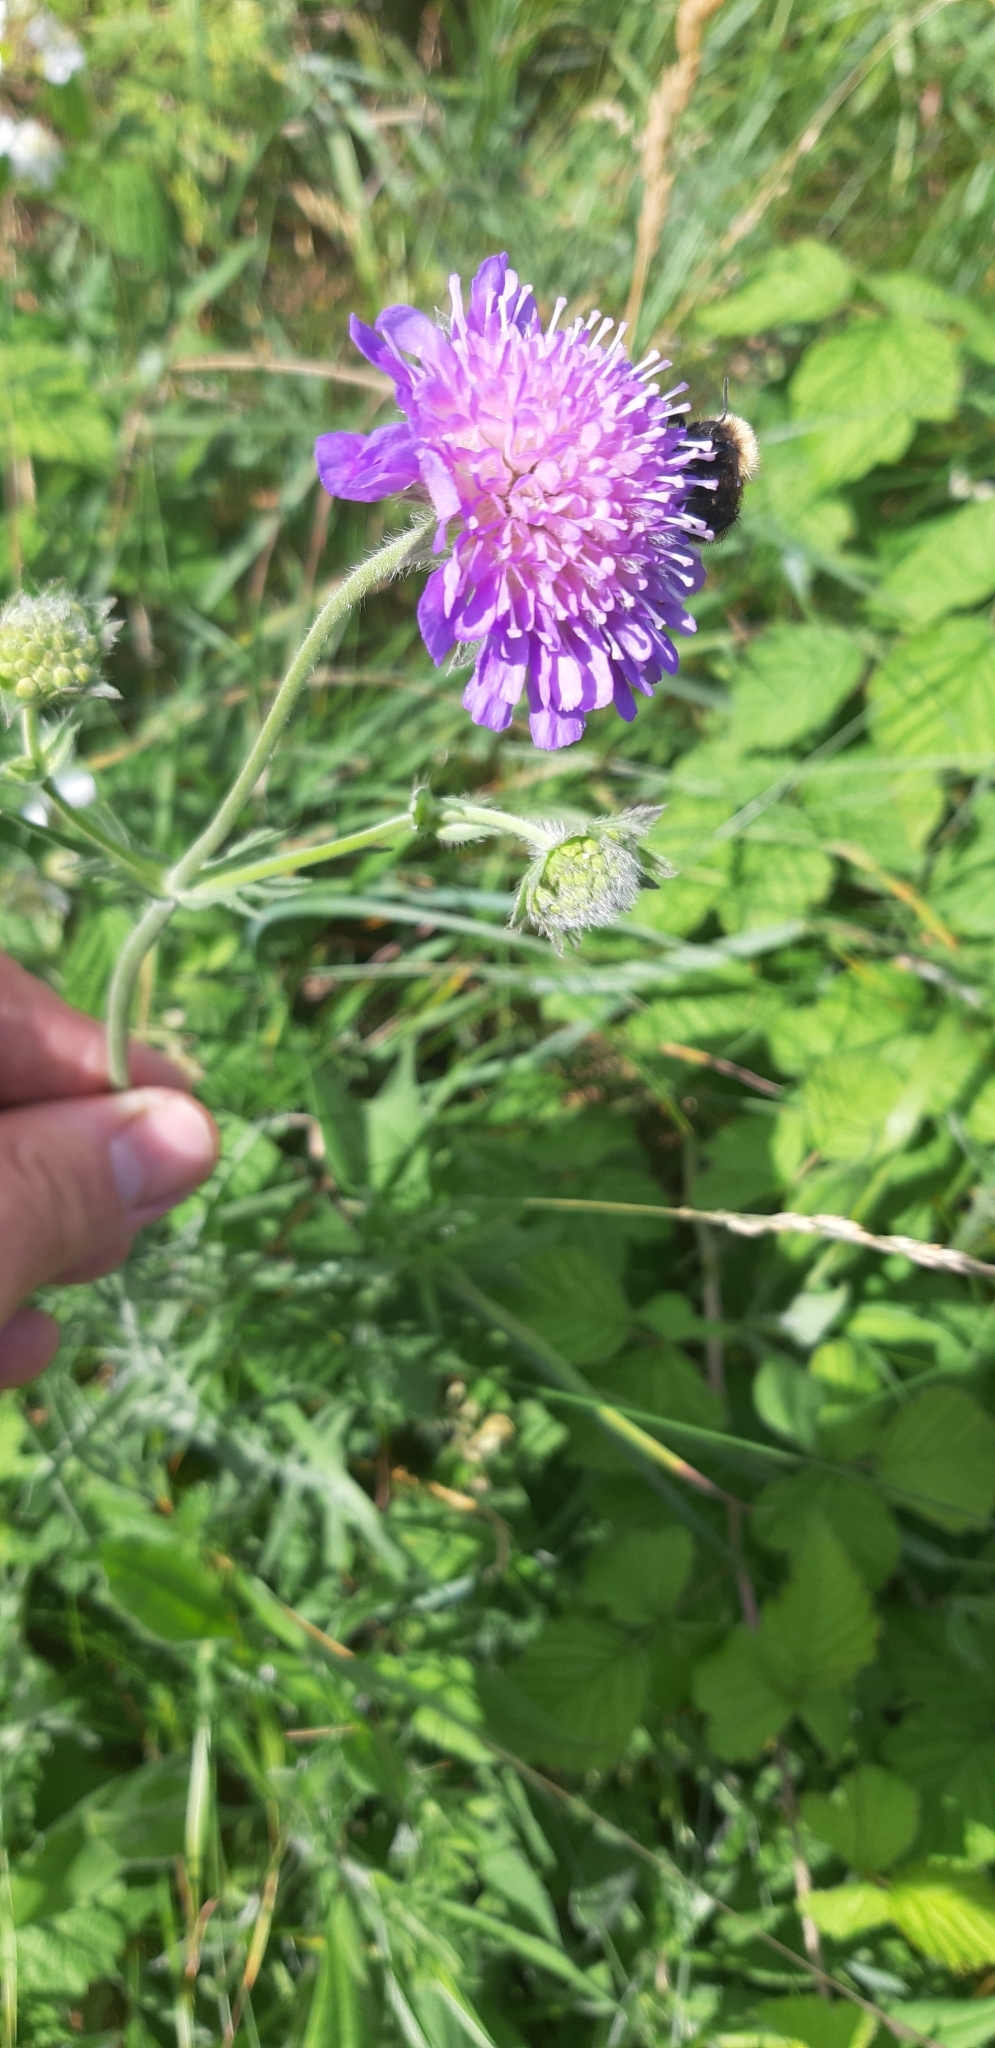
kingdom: Plantae
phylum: Tracheophyta
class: Magnoliopsida
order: Dipsacales
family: Caprifoliaceae
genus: Knautia
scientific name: Knautia arvensis
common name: Field scabiosa
